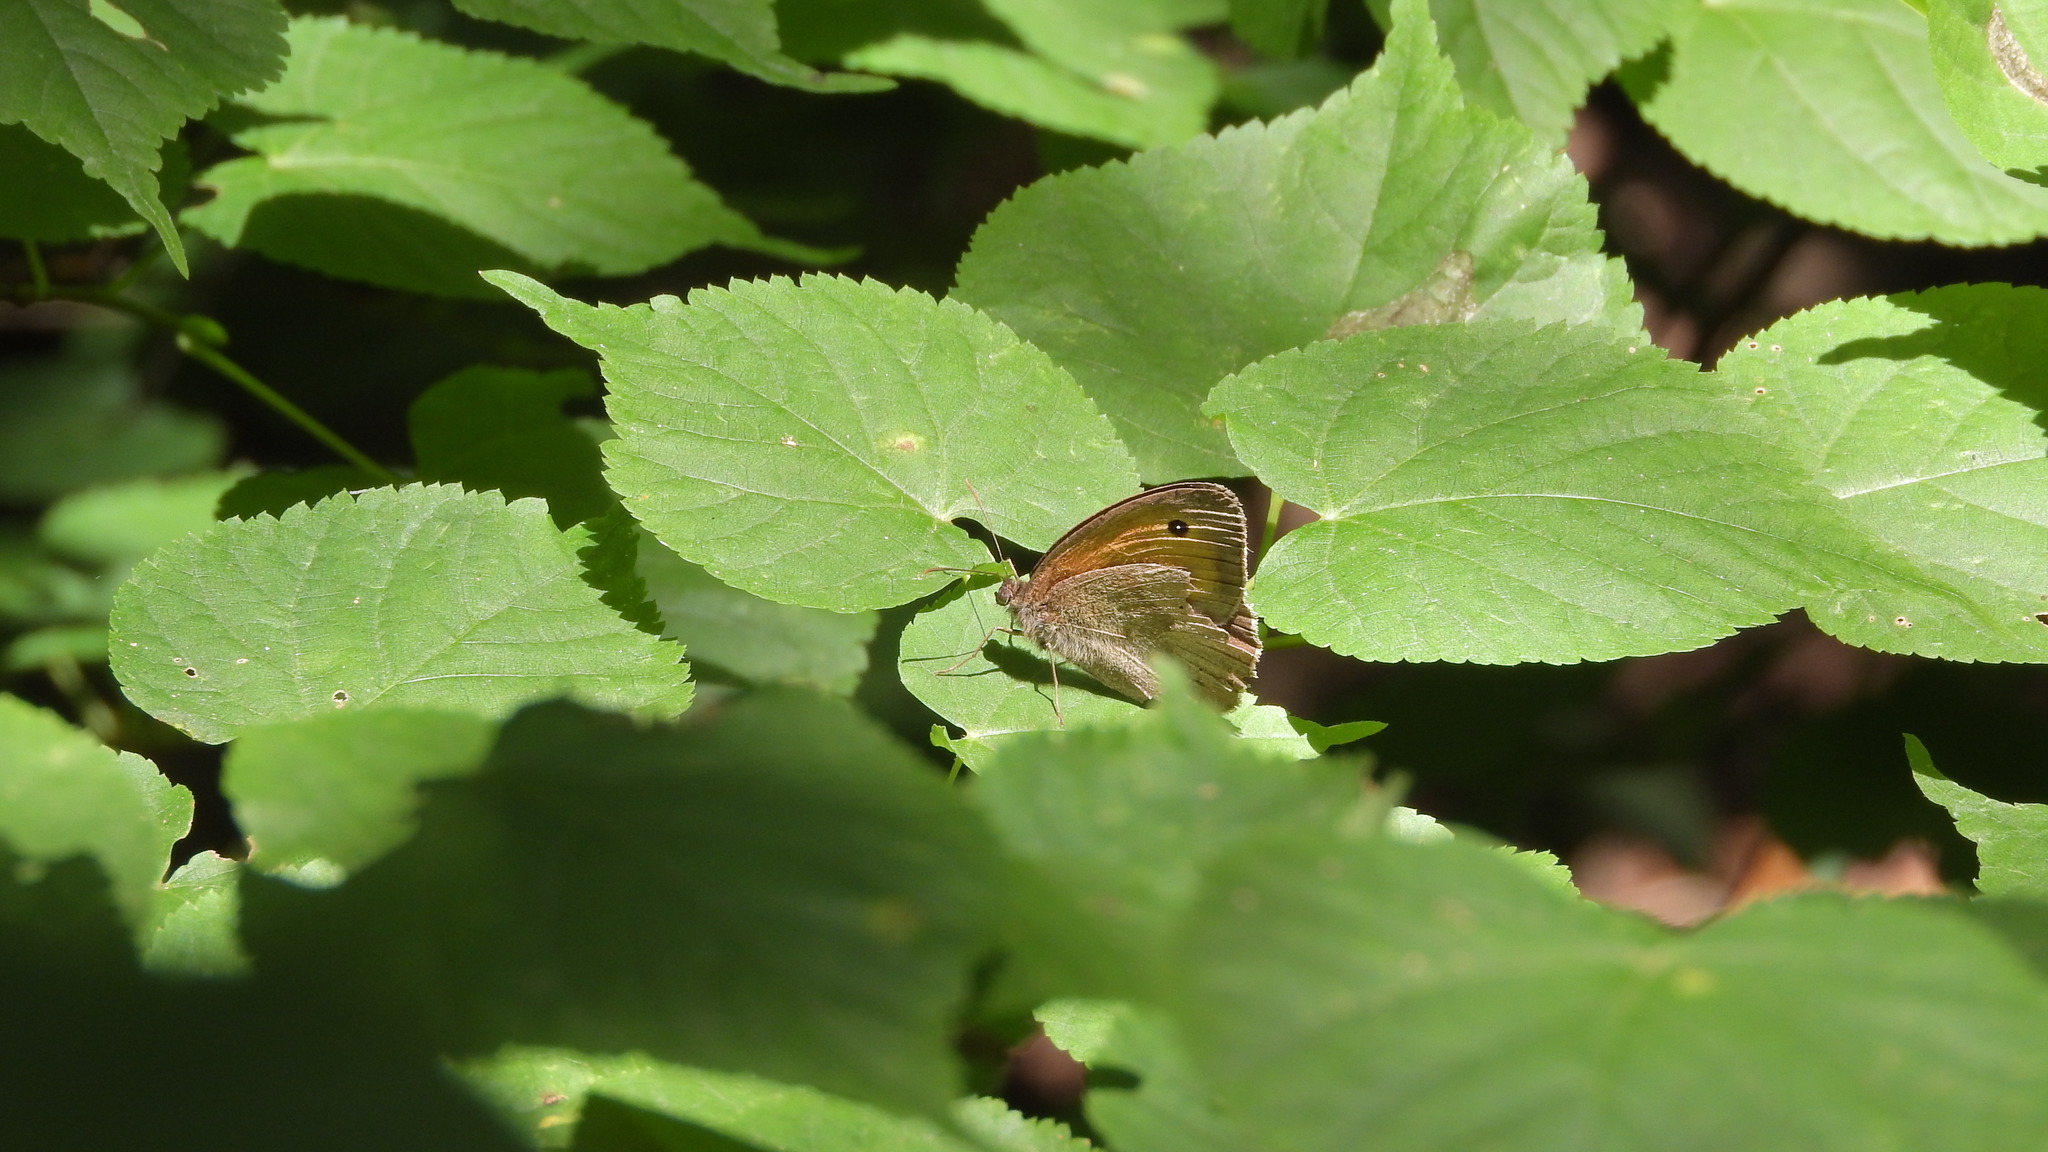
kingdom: Animalia
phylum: Arthropoda
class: Insecta
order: Lepidoptera
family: Nymphalidae
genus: Maniola
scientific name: Maniola jurtina
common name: Meadow brown
